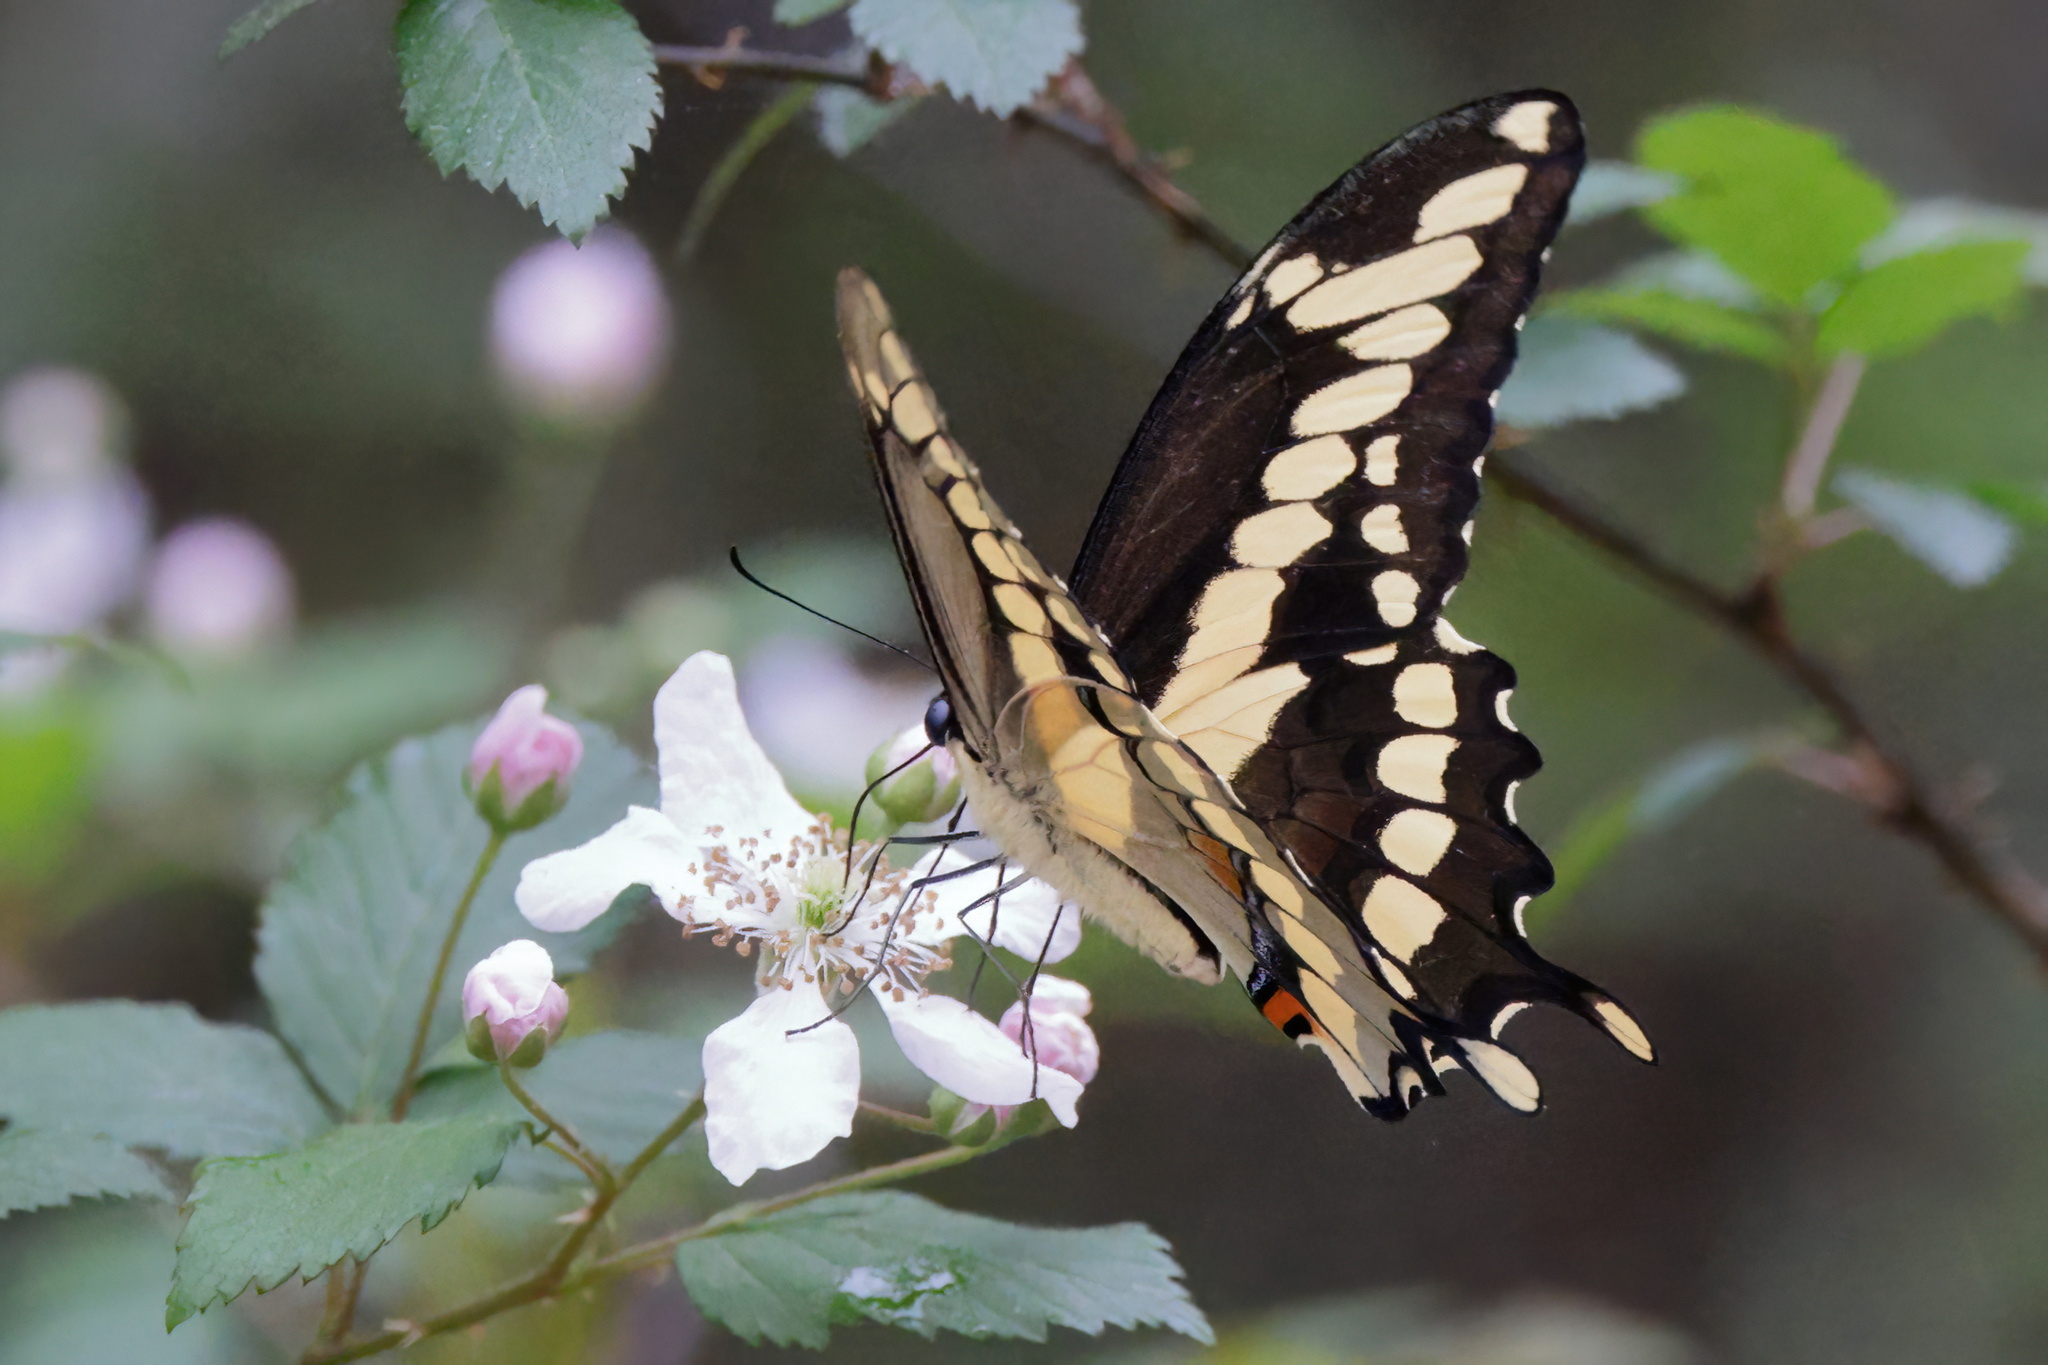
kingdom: Animalia
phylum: Arthropoda
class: Insecta
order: Lepidoptera
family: Papilionidae
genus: Papilio
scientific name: Papilio cresphontes
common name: Giant swallowtail
